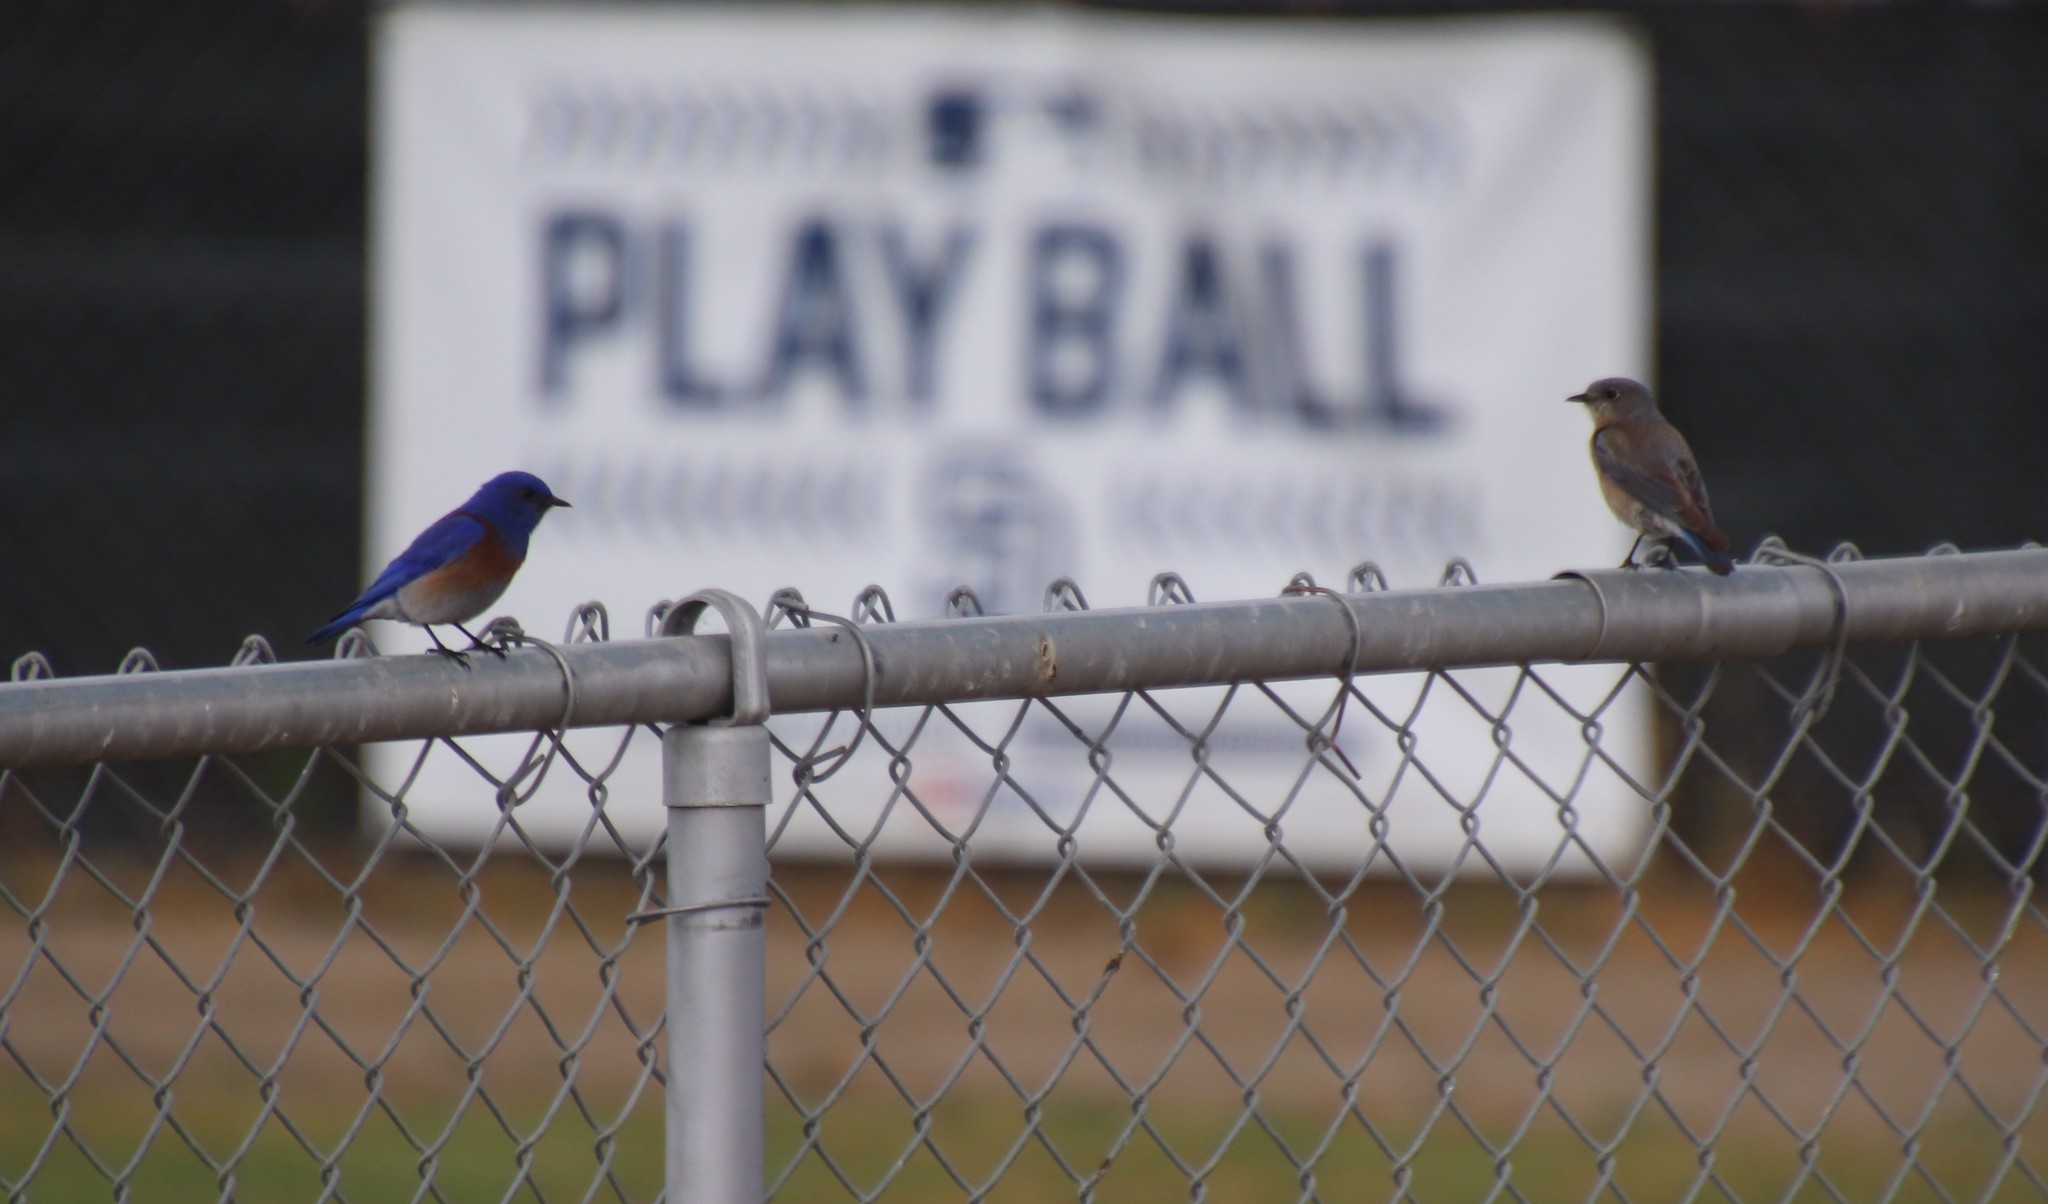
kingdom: Animalia
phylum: Chordata
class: Aves
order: Passeriformes
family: Turdidae
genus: Sialia
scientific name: Sialia mexicana
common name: Western bluebird
